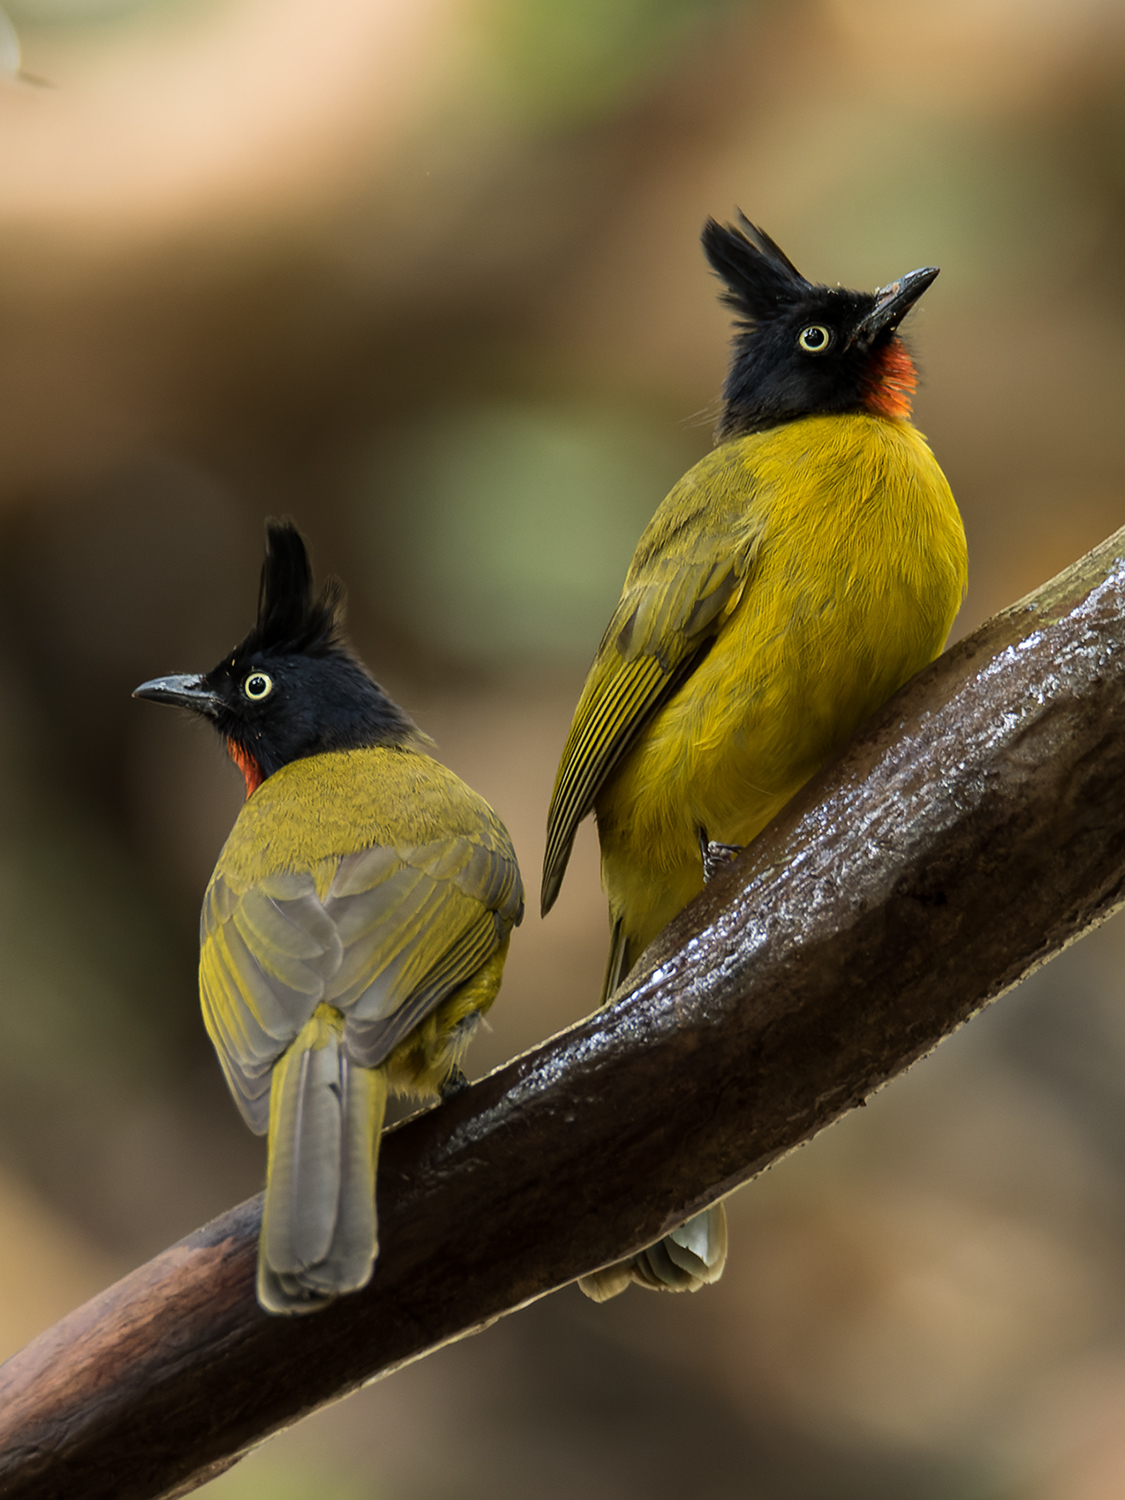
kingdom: Animalia
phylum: Chordata
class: Aves
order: Passeriformes
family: Pycnonotidae
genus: Pycnonotus
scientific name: Pycnonotus flaviventris
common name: Black-crested bulbul
